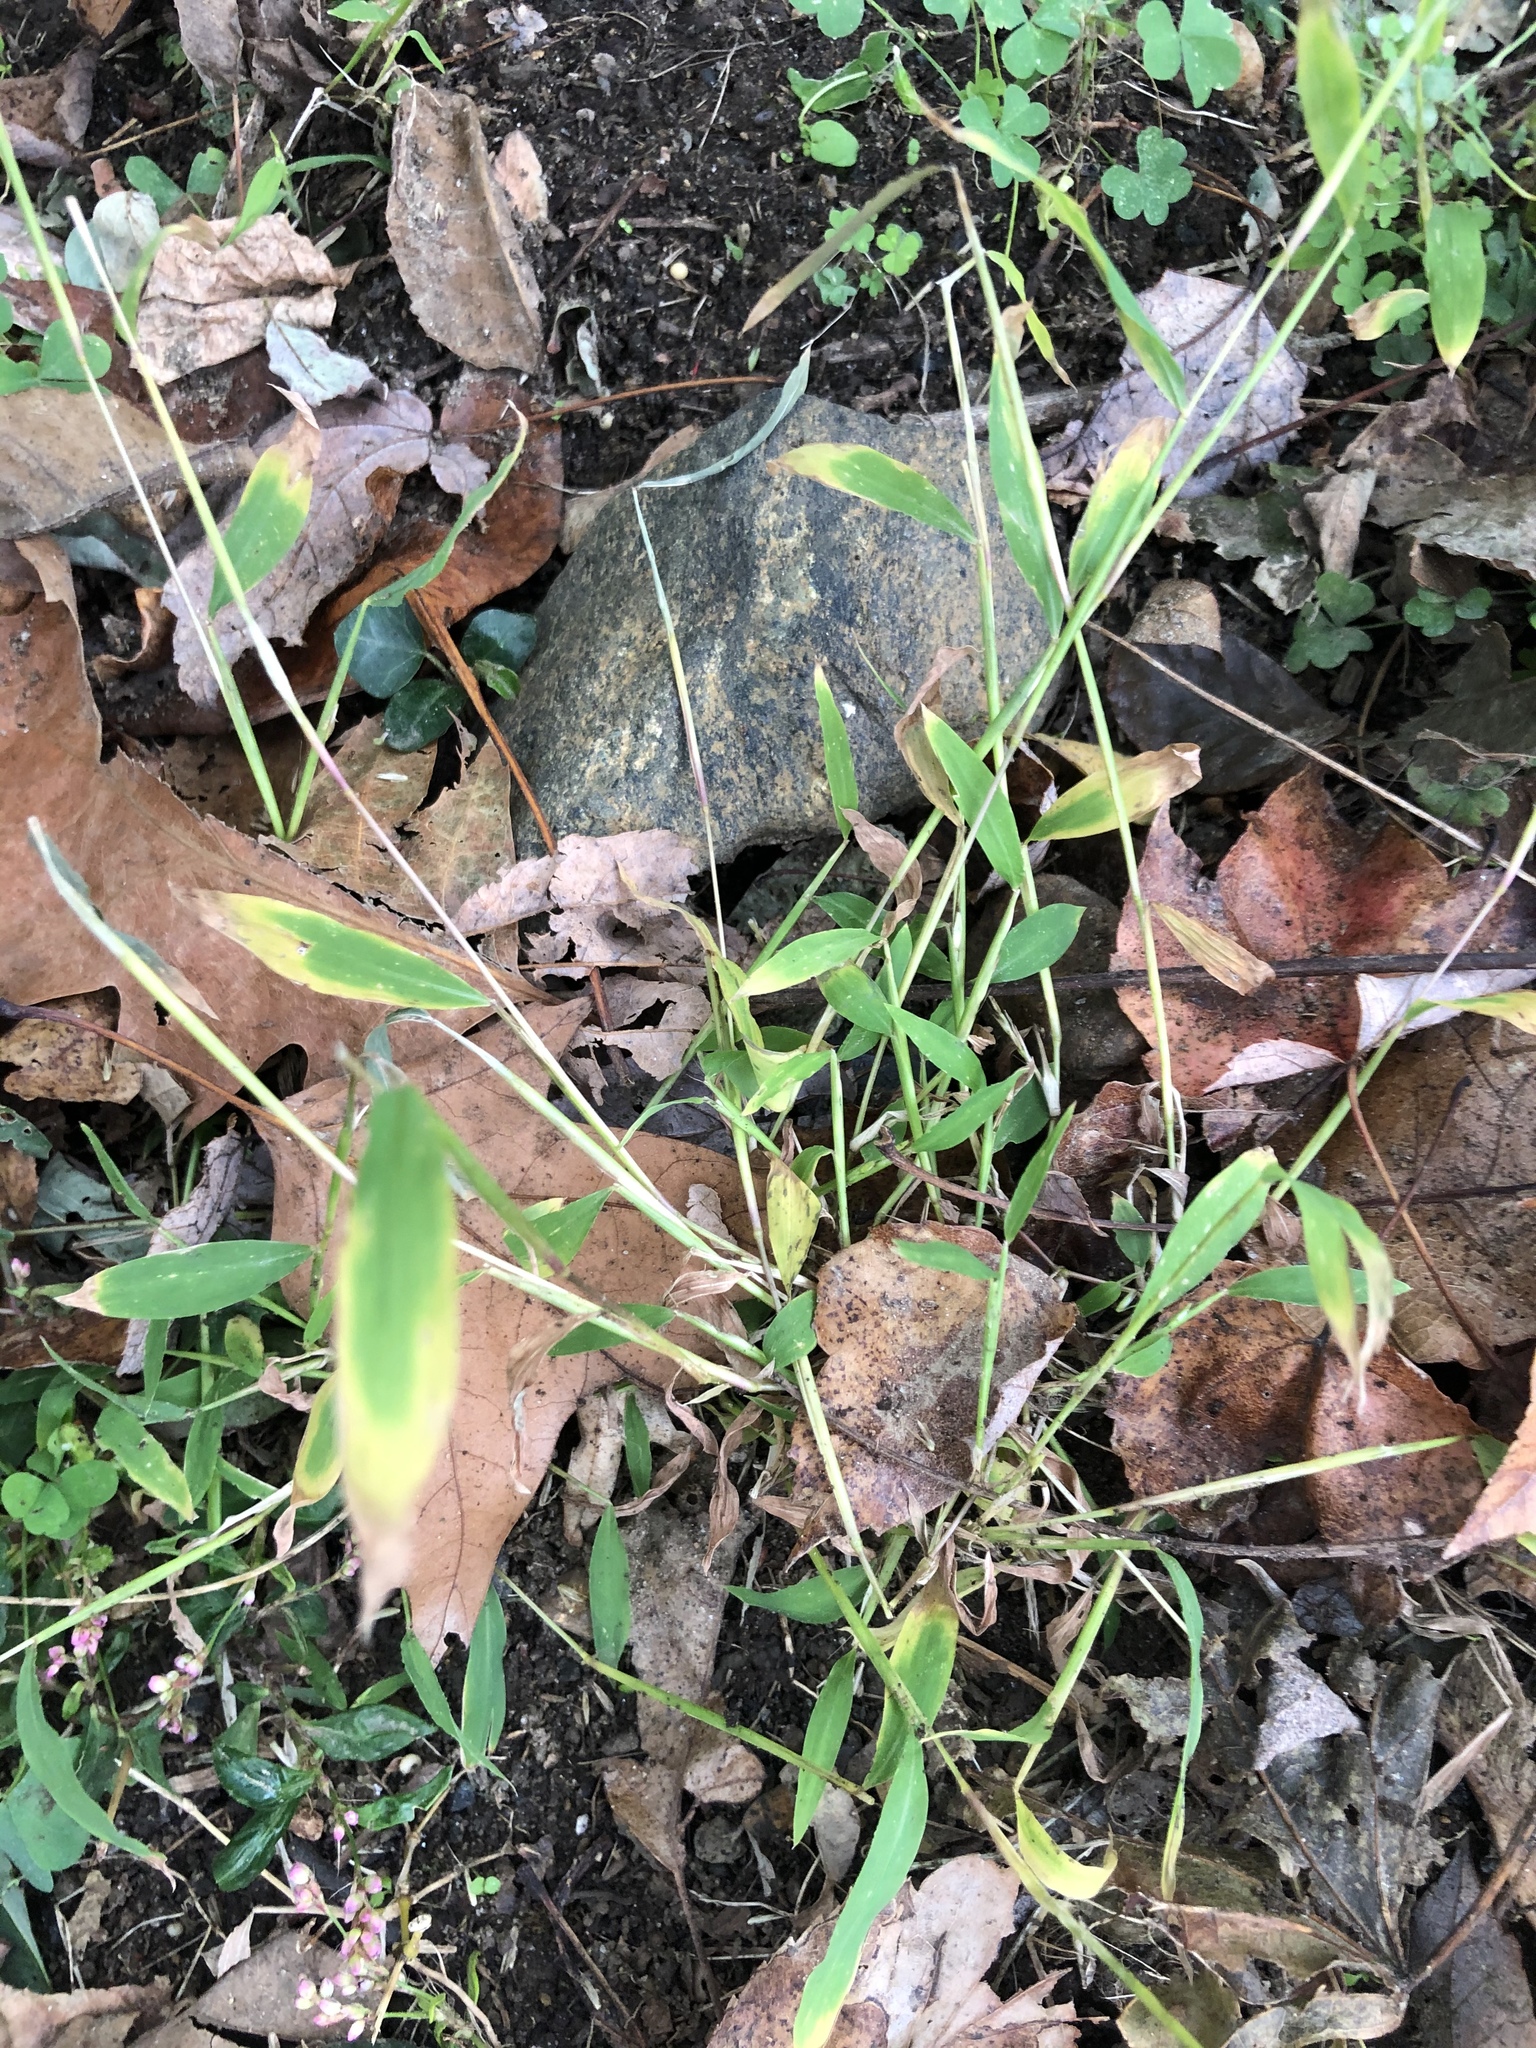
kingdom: Plantae
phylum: Tracheophyta
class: Liliopsida
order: Poales
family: Poaceae
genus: Microstegium
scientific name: Microstegium vimineum
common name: Japanese stiltgrass
